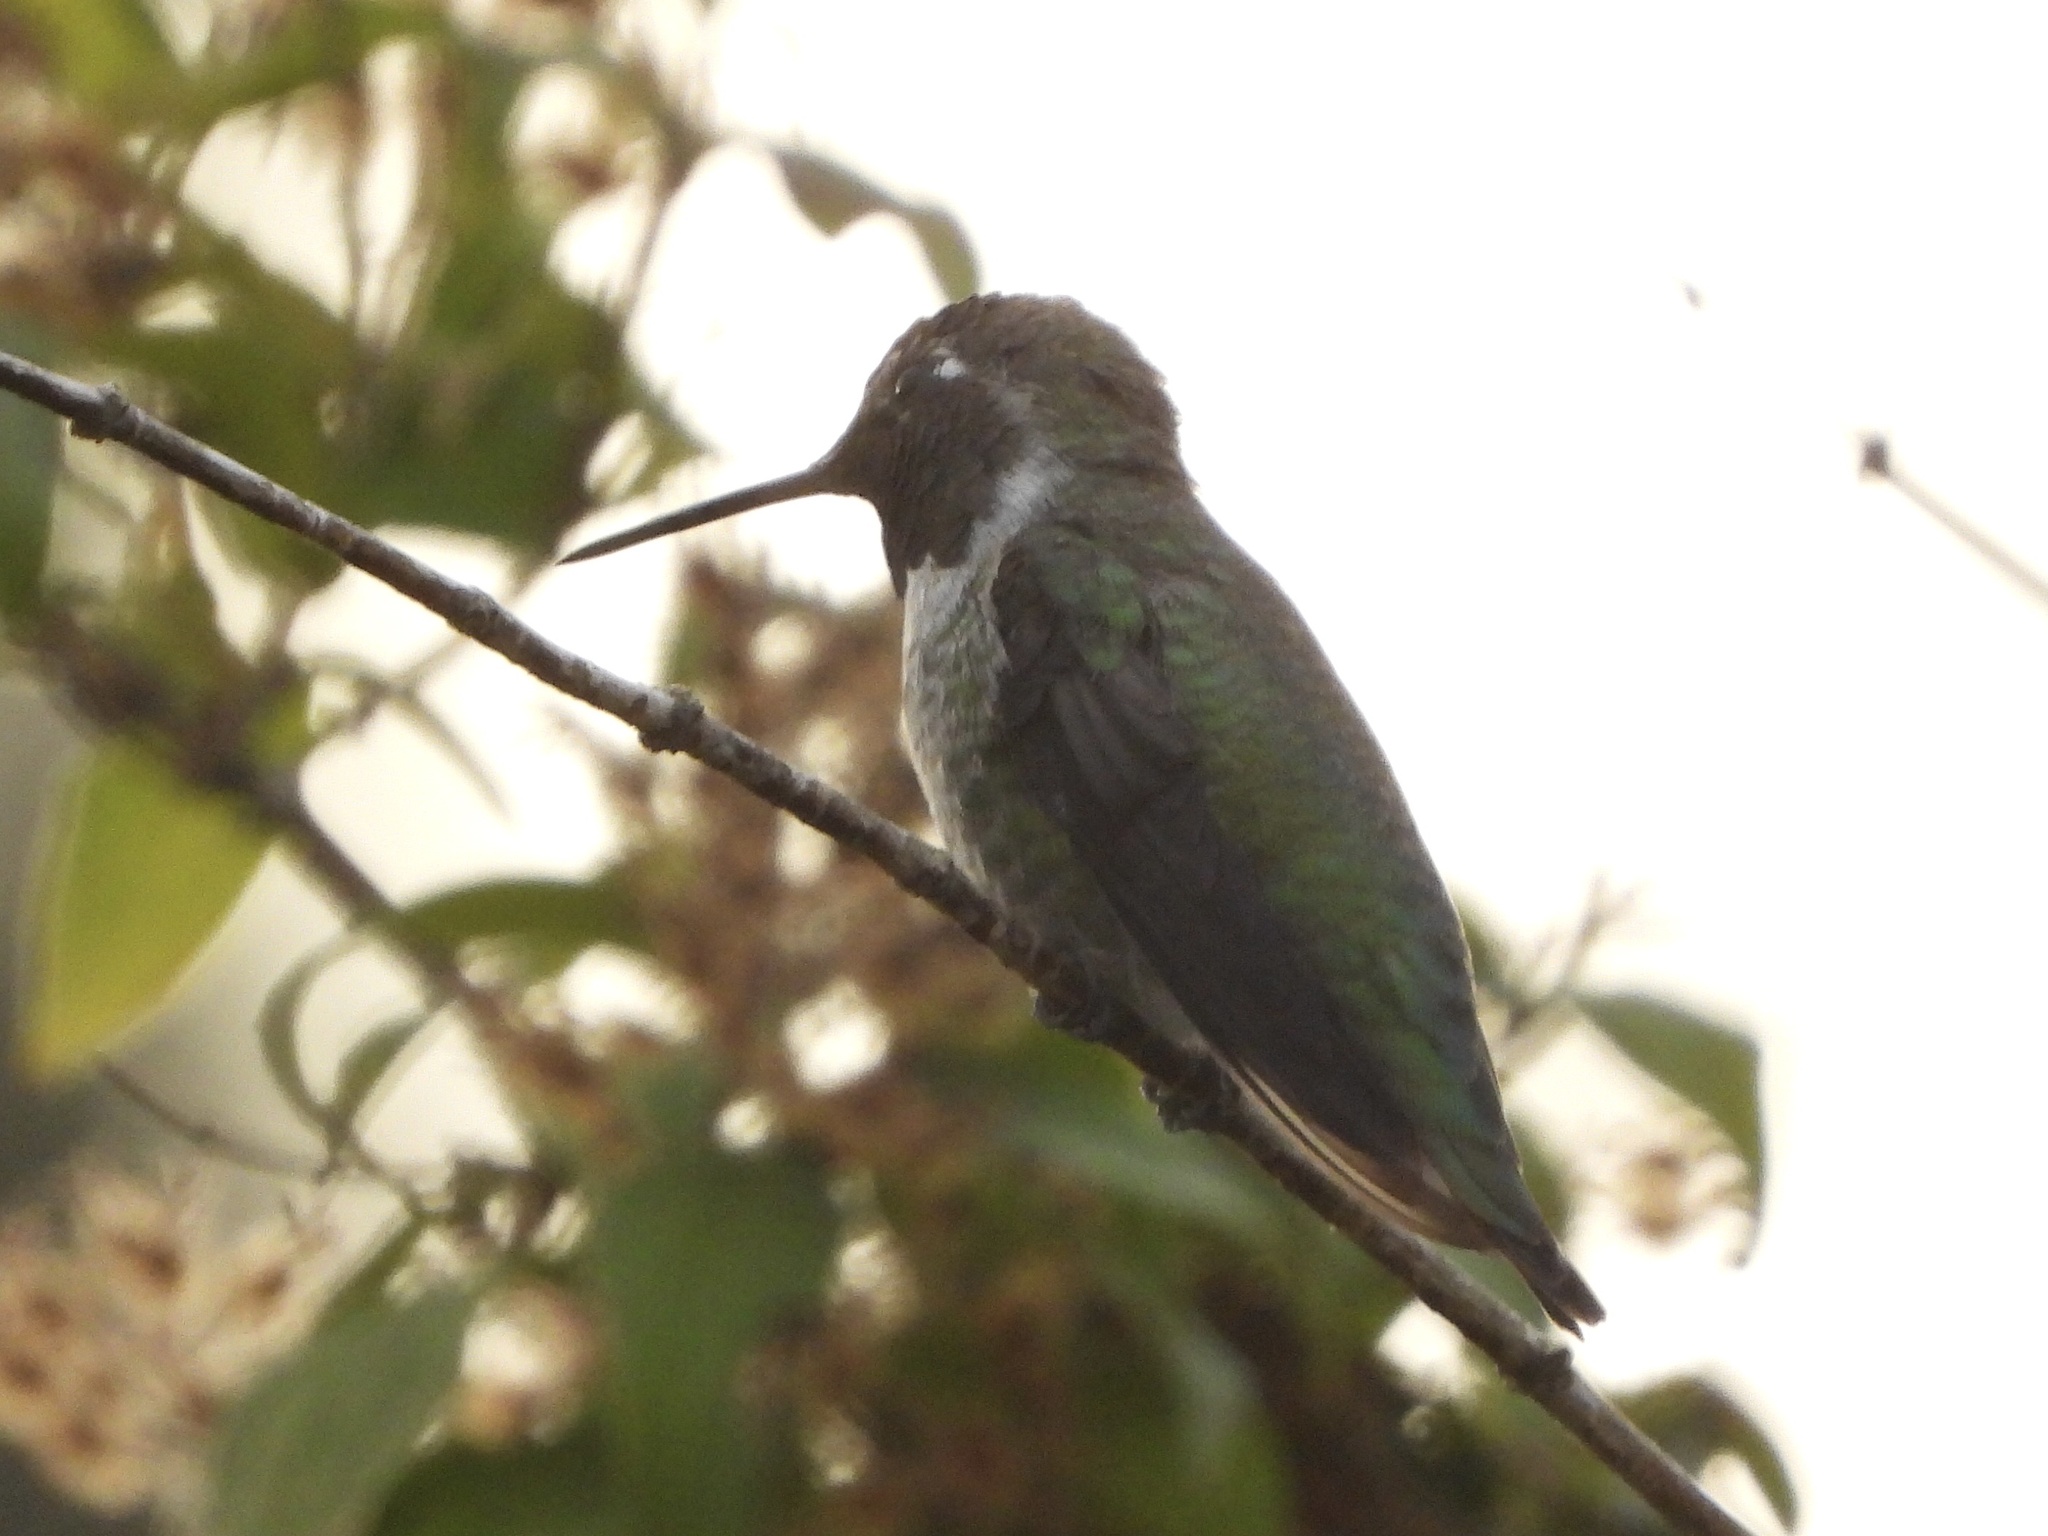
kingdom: Animalia
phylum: Chordata
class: Aves
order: Apodiformes
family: Trochilidae
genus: Calypte
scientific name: Calypte anna
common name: Anna's hummingbird
